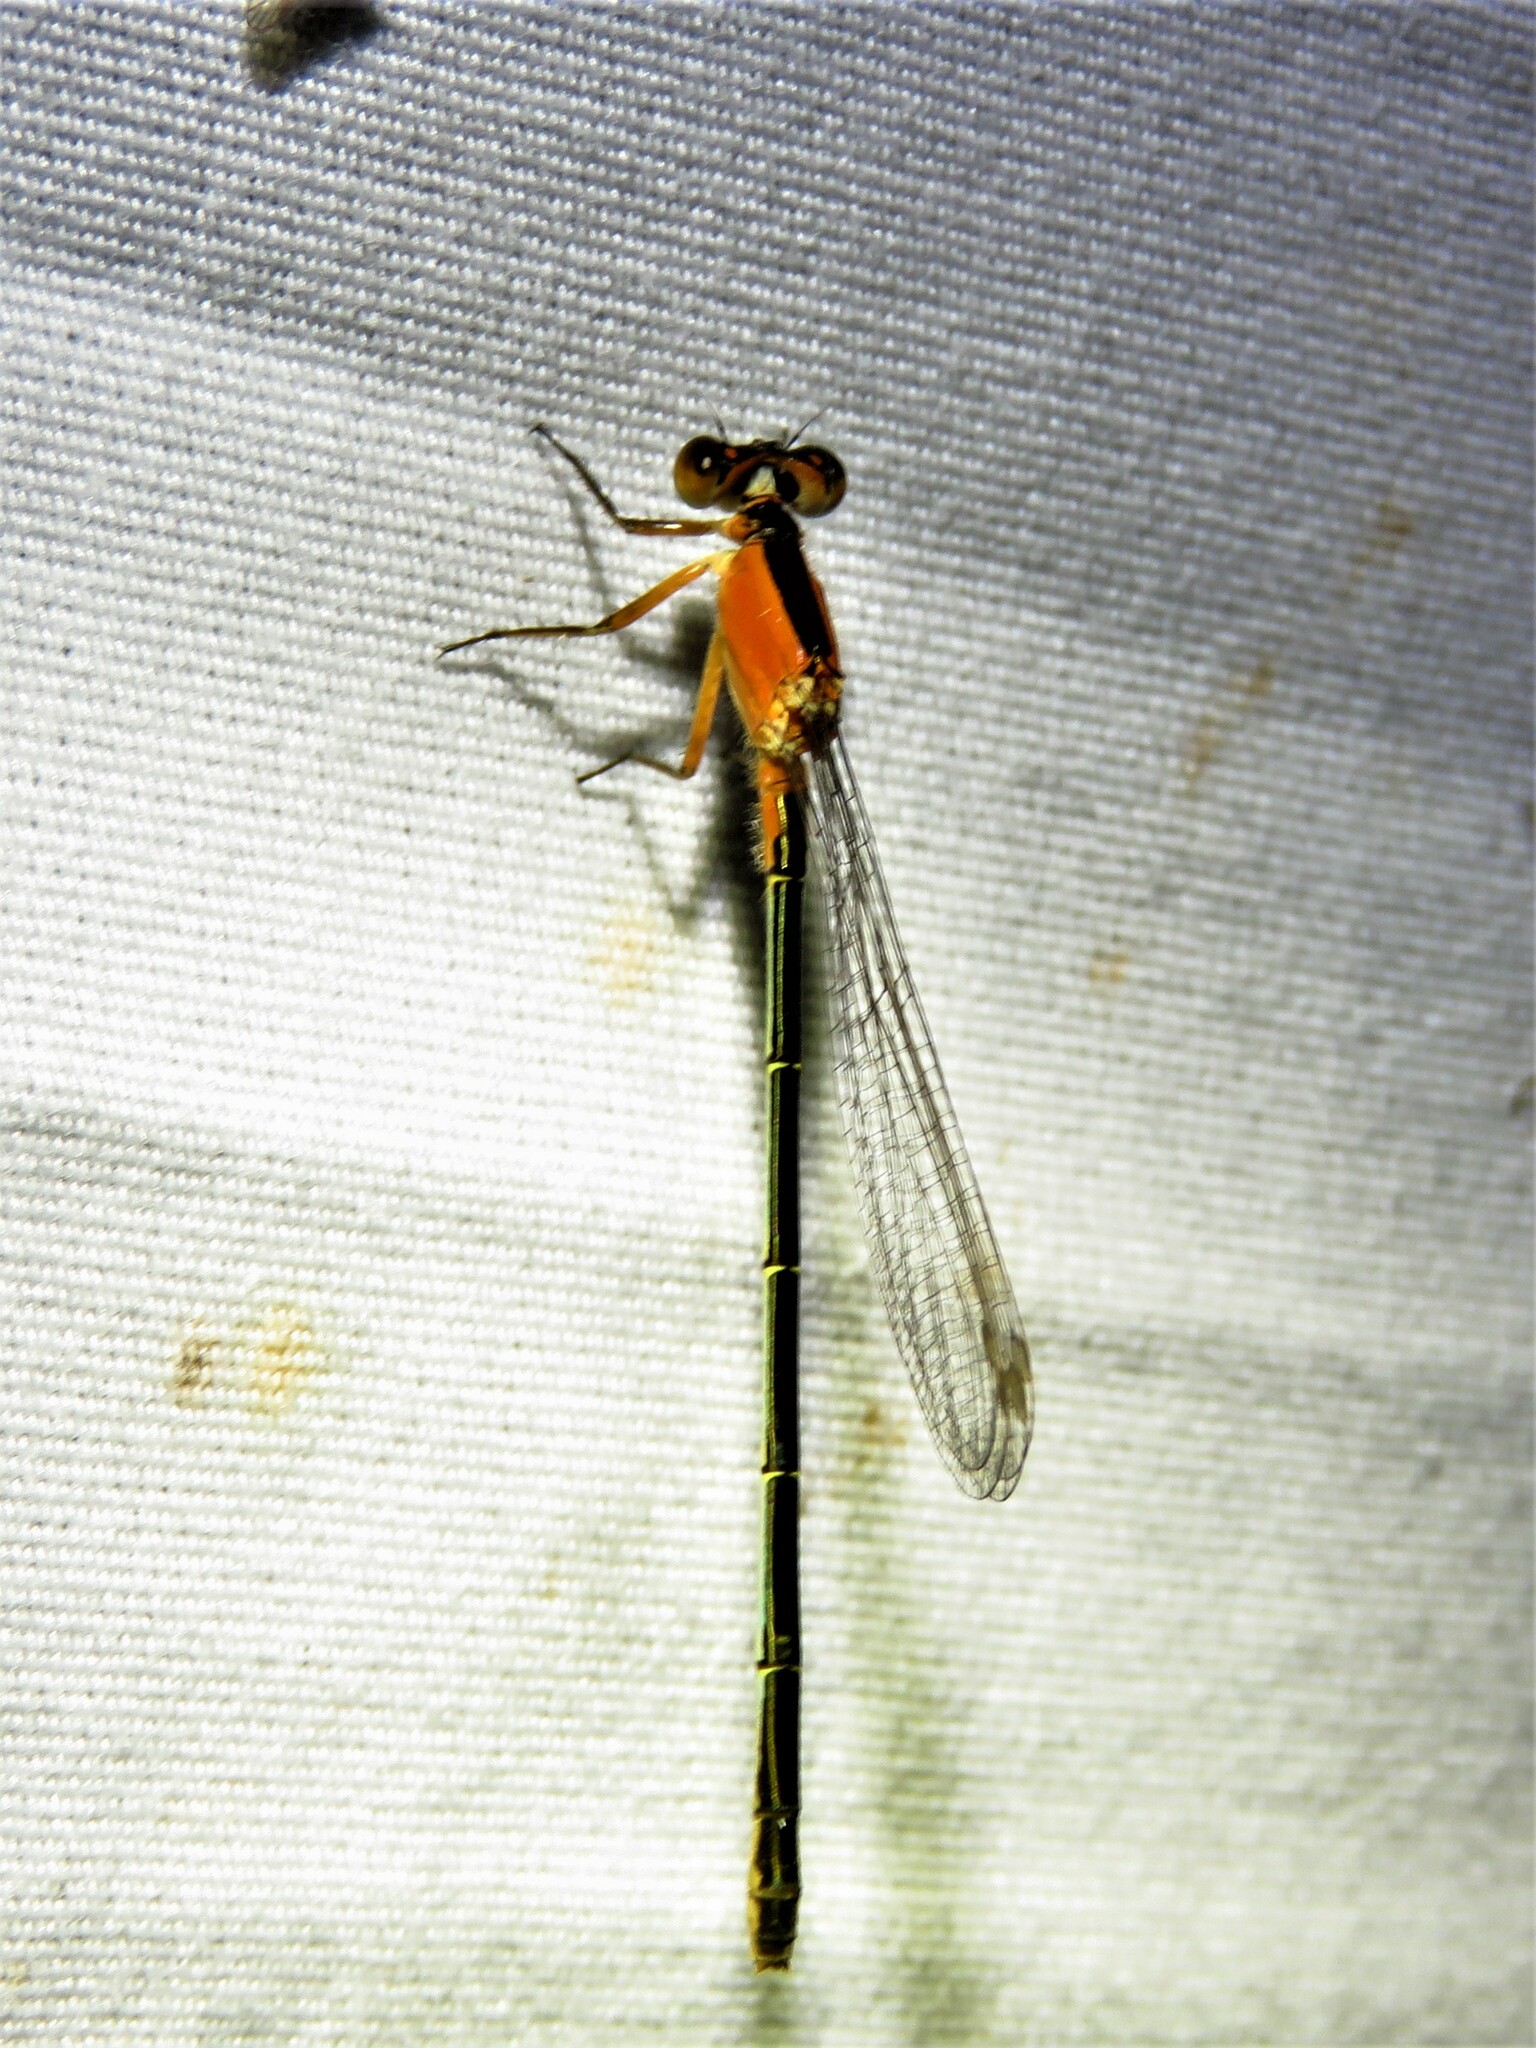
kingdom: Animalia
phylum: Arthropoda
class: Insecta
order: Odonata
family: Coenagrionidae
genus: Ischnura
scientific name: Ischnura ramburii
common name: Rambur's forktail
